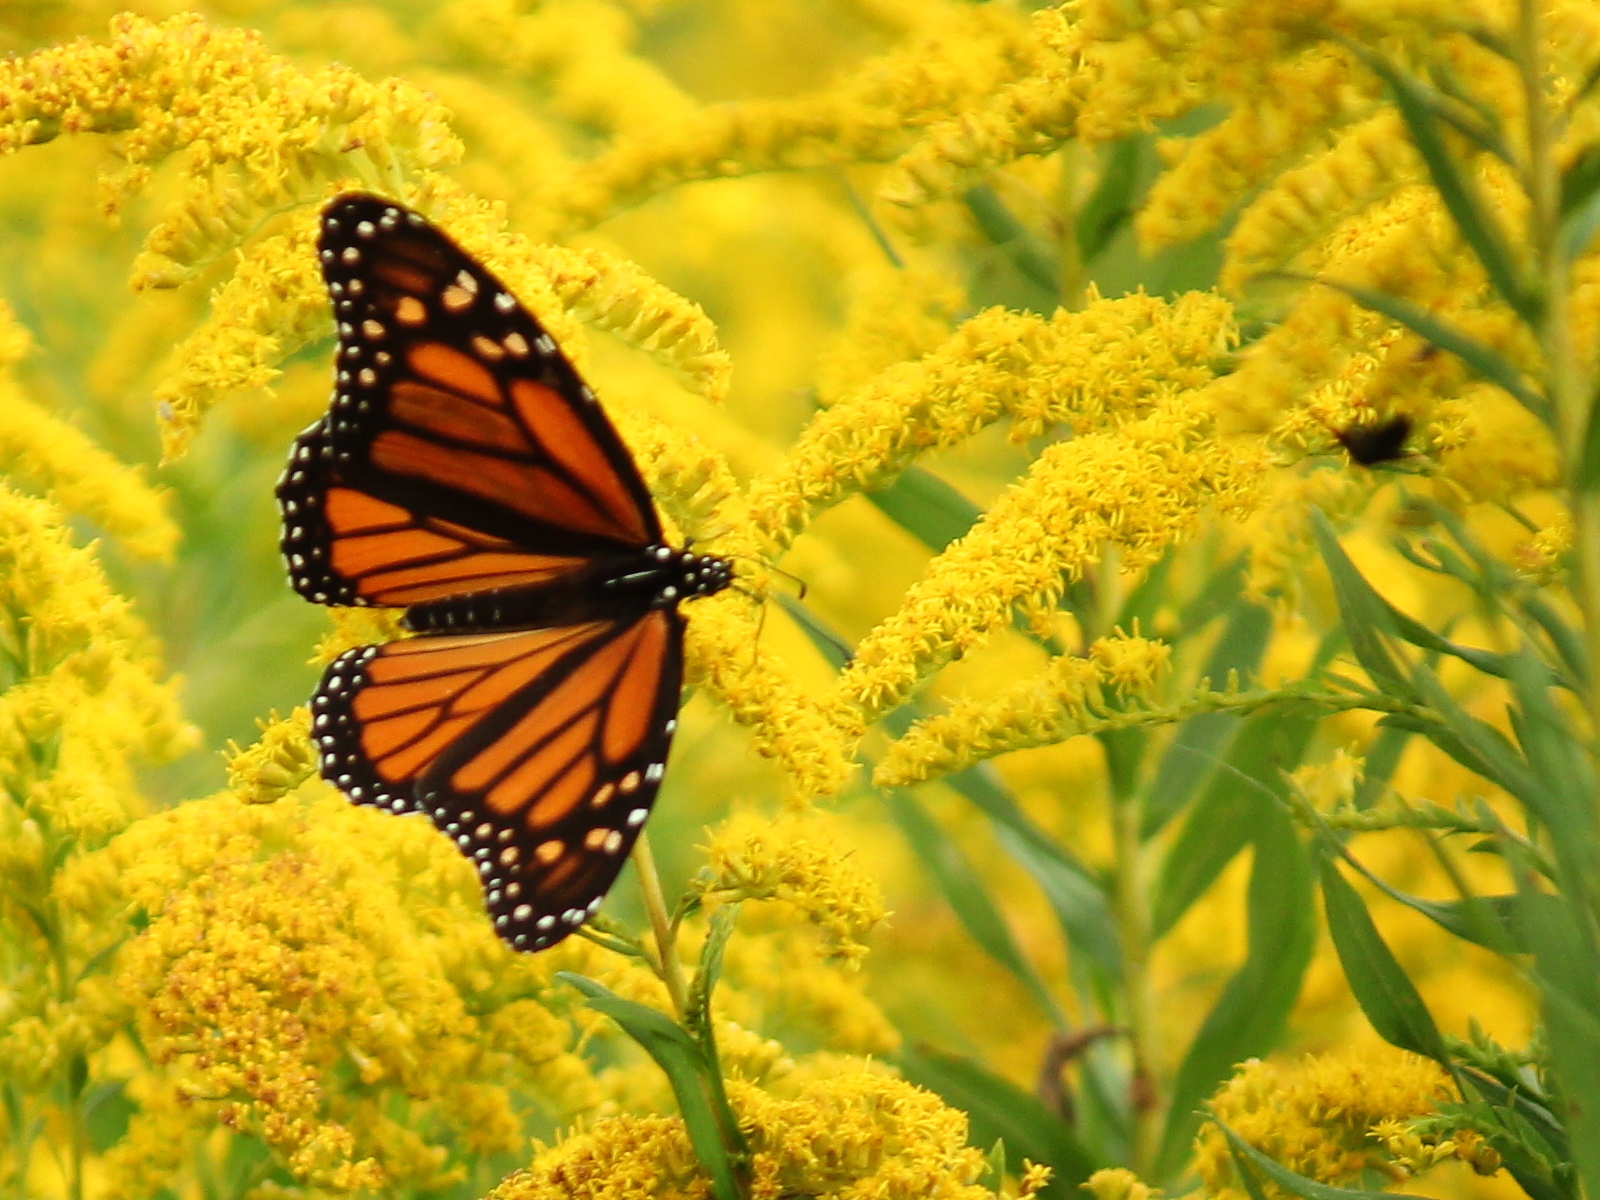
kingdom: Animalia
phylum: Arthropoda
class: Insecta
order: Lepidoptera
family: Nymphalidae
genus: Danaus
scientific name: Danaus plexippus
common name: Monarch
